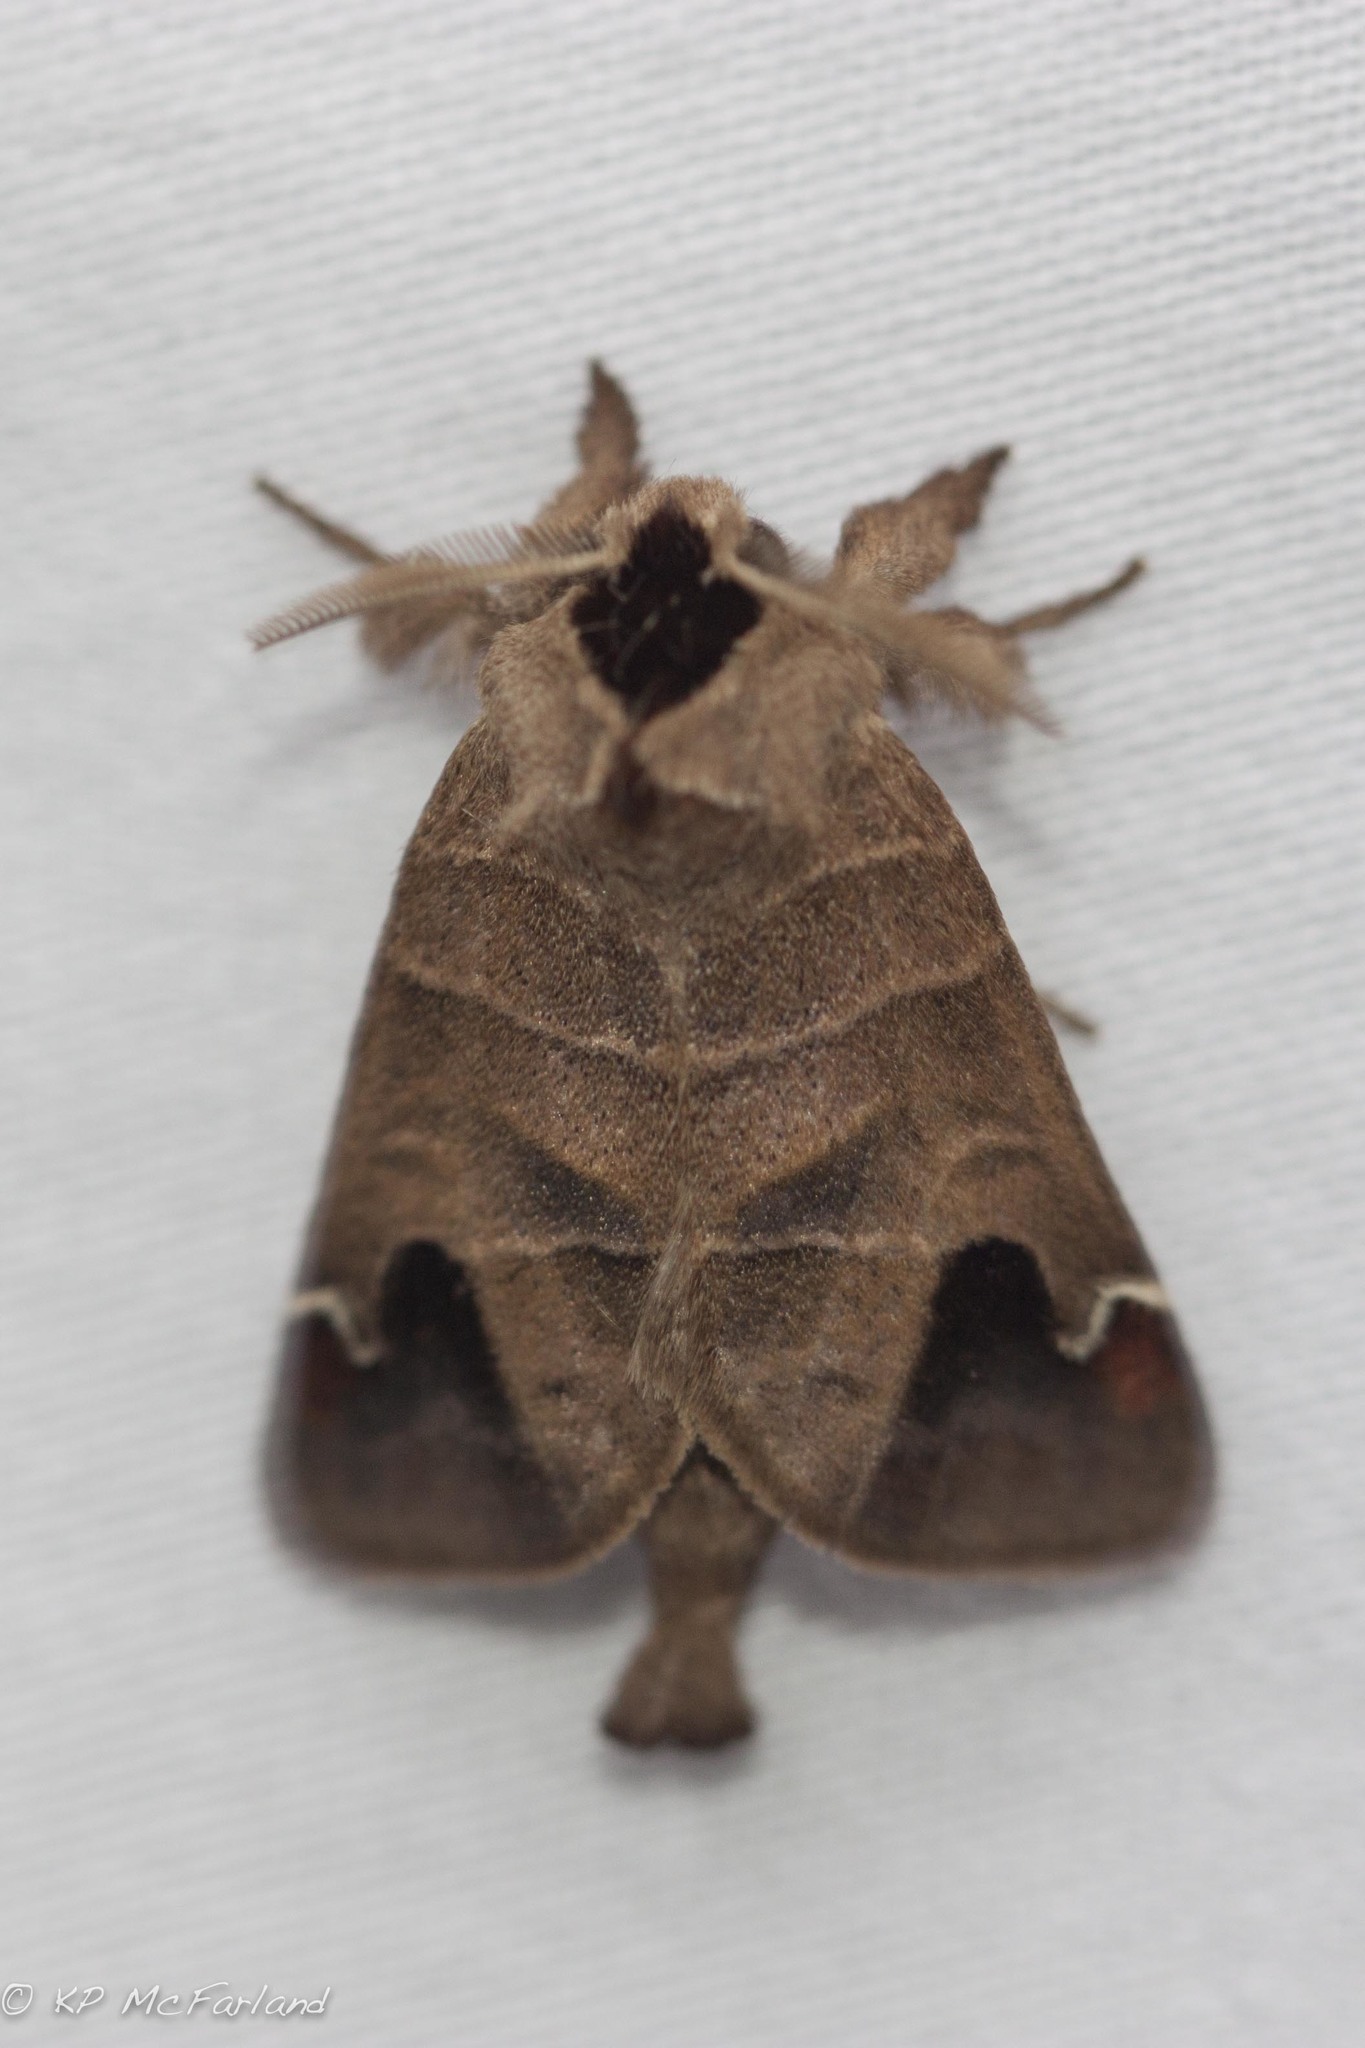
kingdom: Animalia
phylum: Arthropoda
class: Insecta
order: Lepidoptera
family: Notodontidae
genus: Clostera
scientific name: Clostera albosigma
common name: Sigmoid prominent
